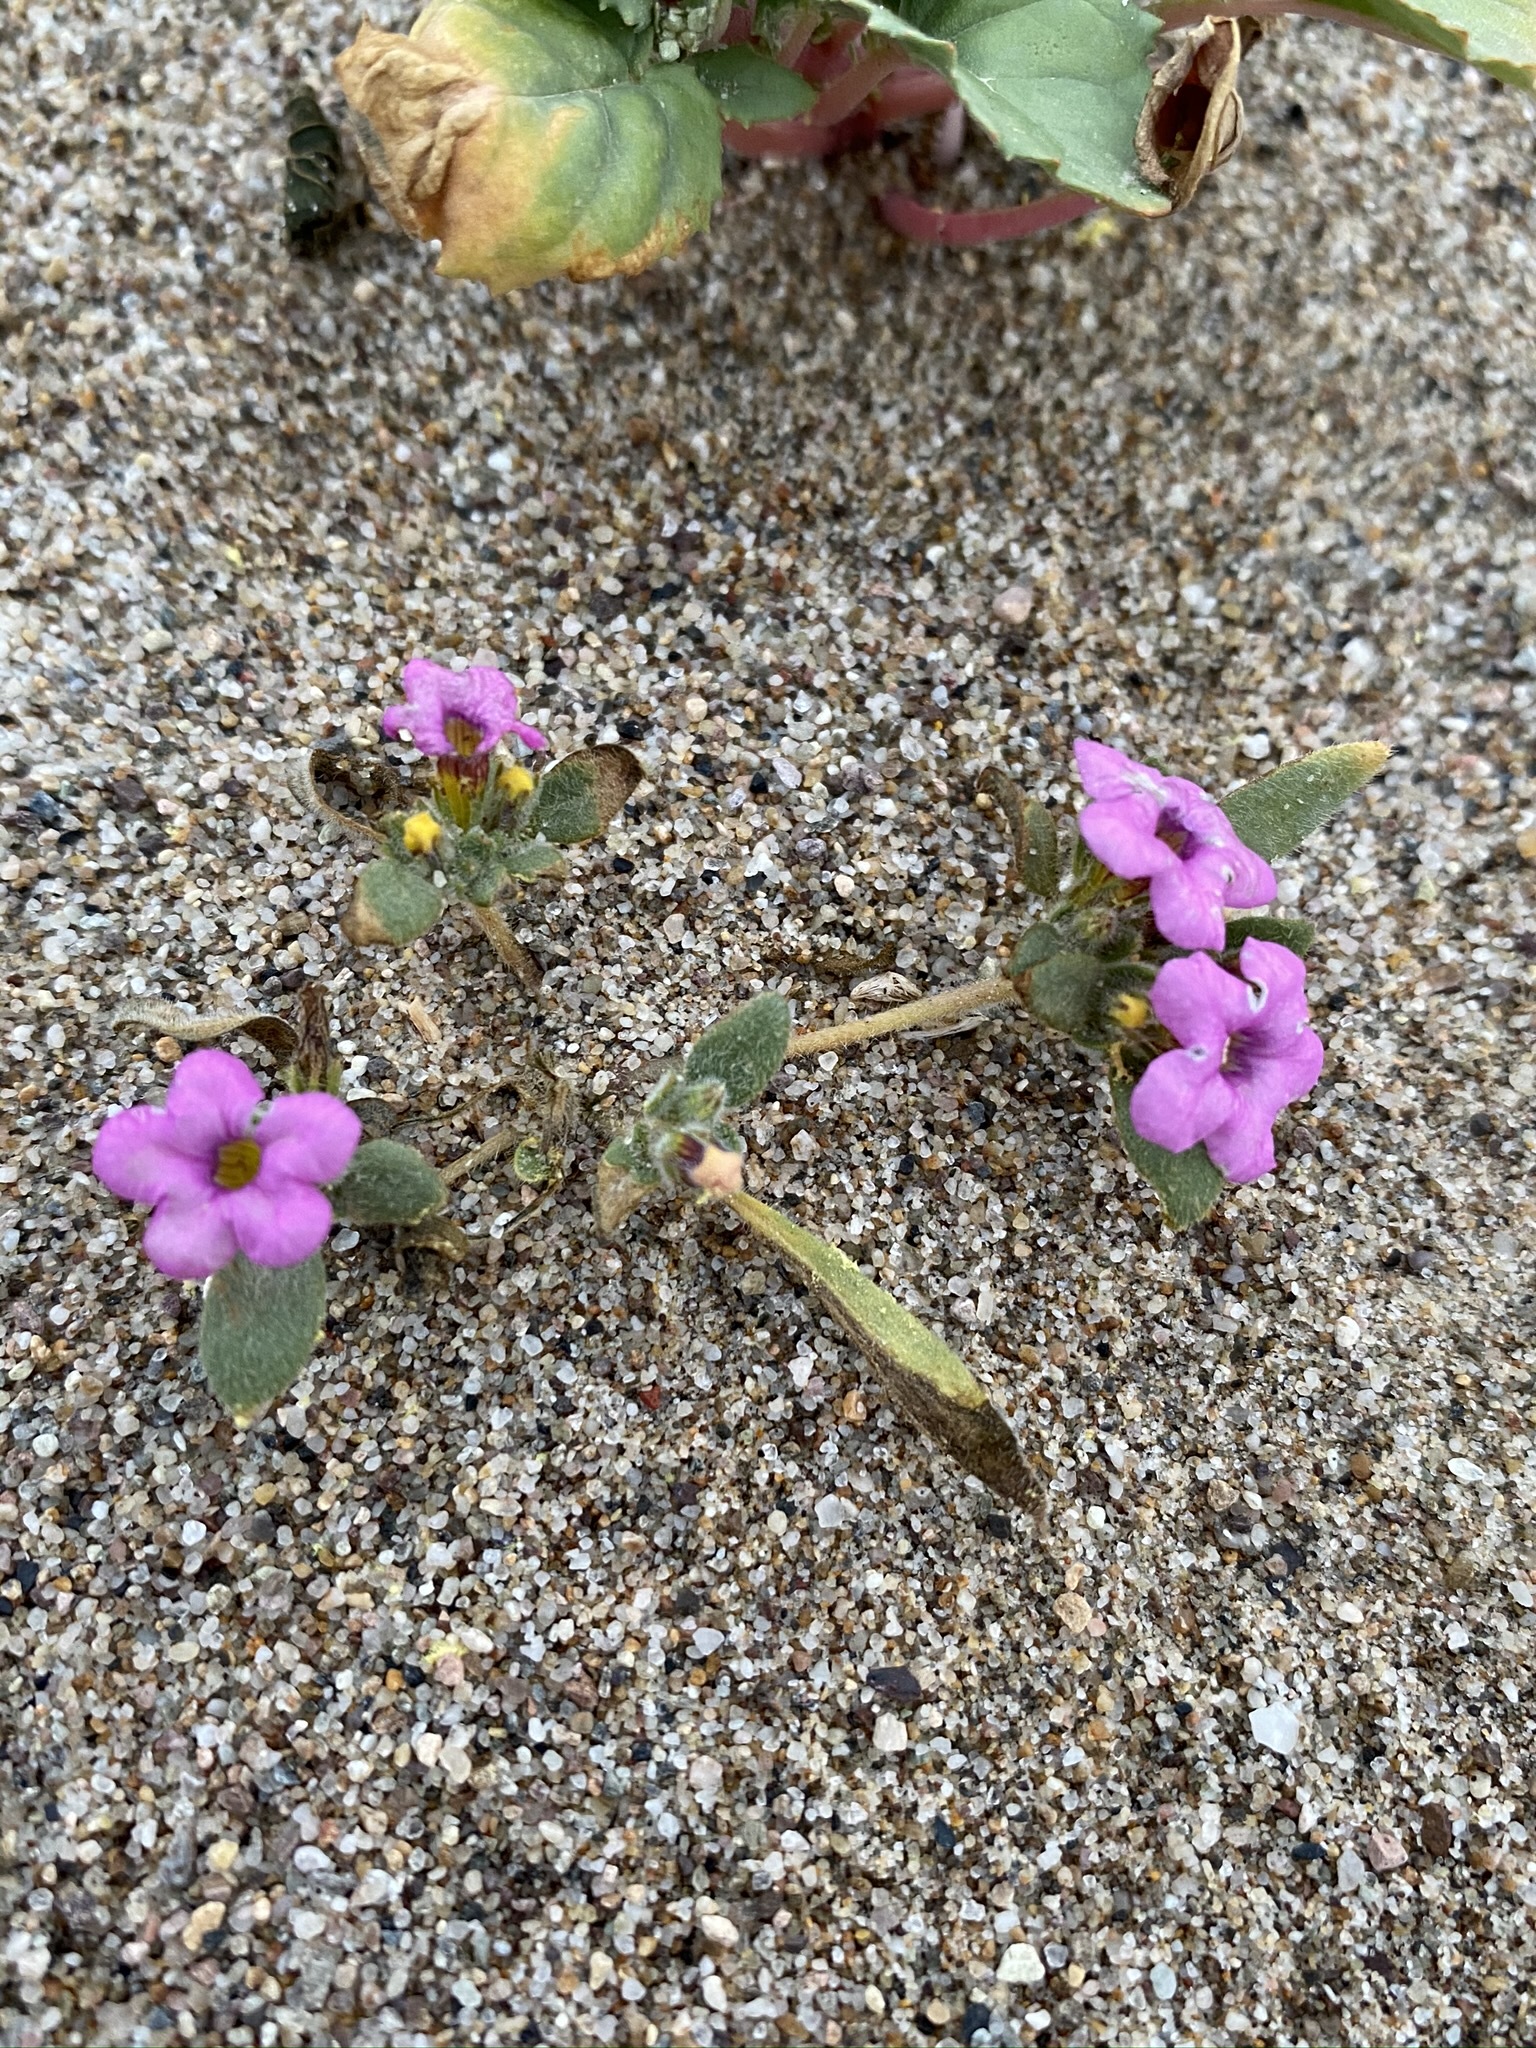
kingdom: Plantae
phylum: Tracheophyta
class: Magnoliopsida
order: Boraginales
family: Namaceae
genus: Nama
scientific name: Nama demissa
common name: Leafy nama
